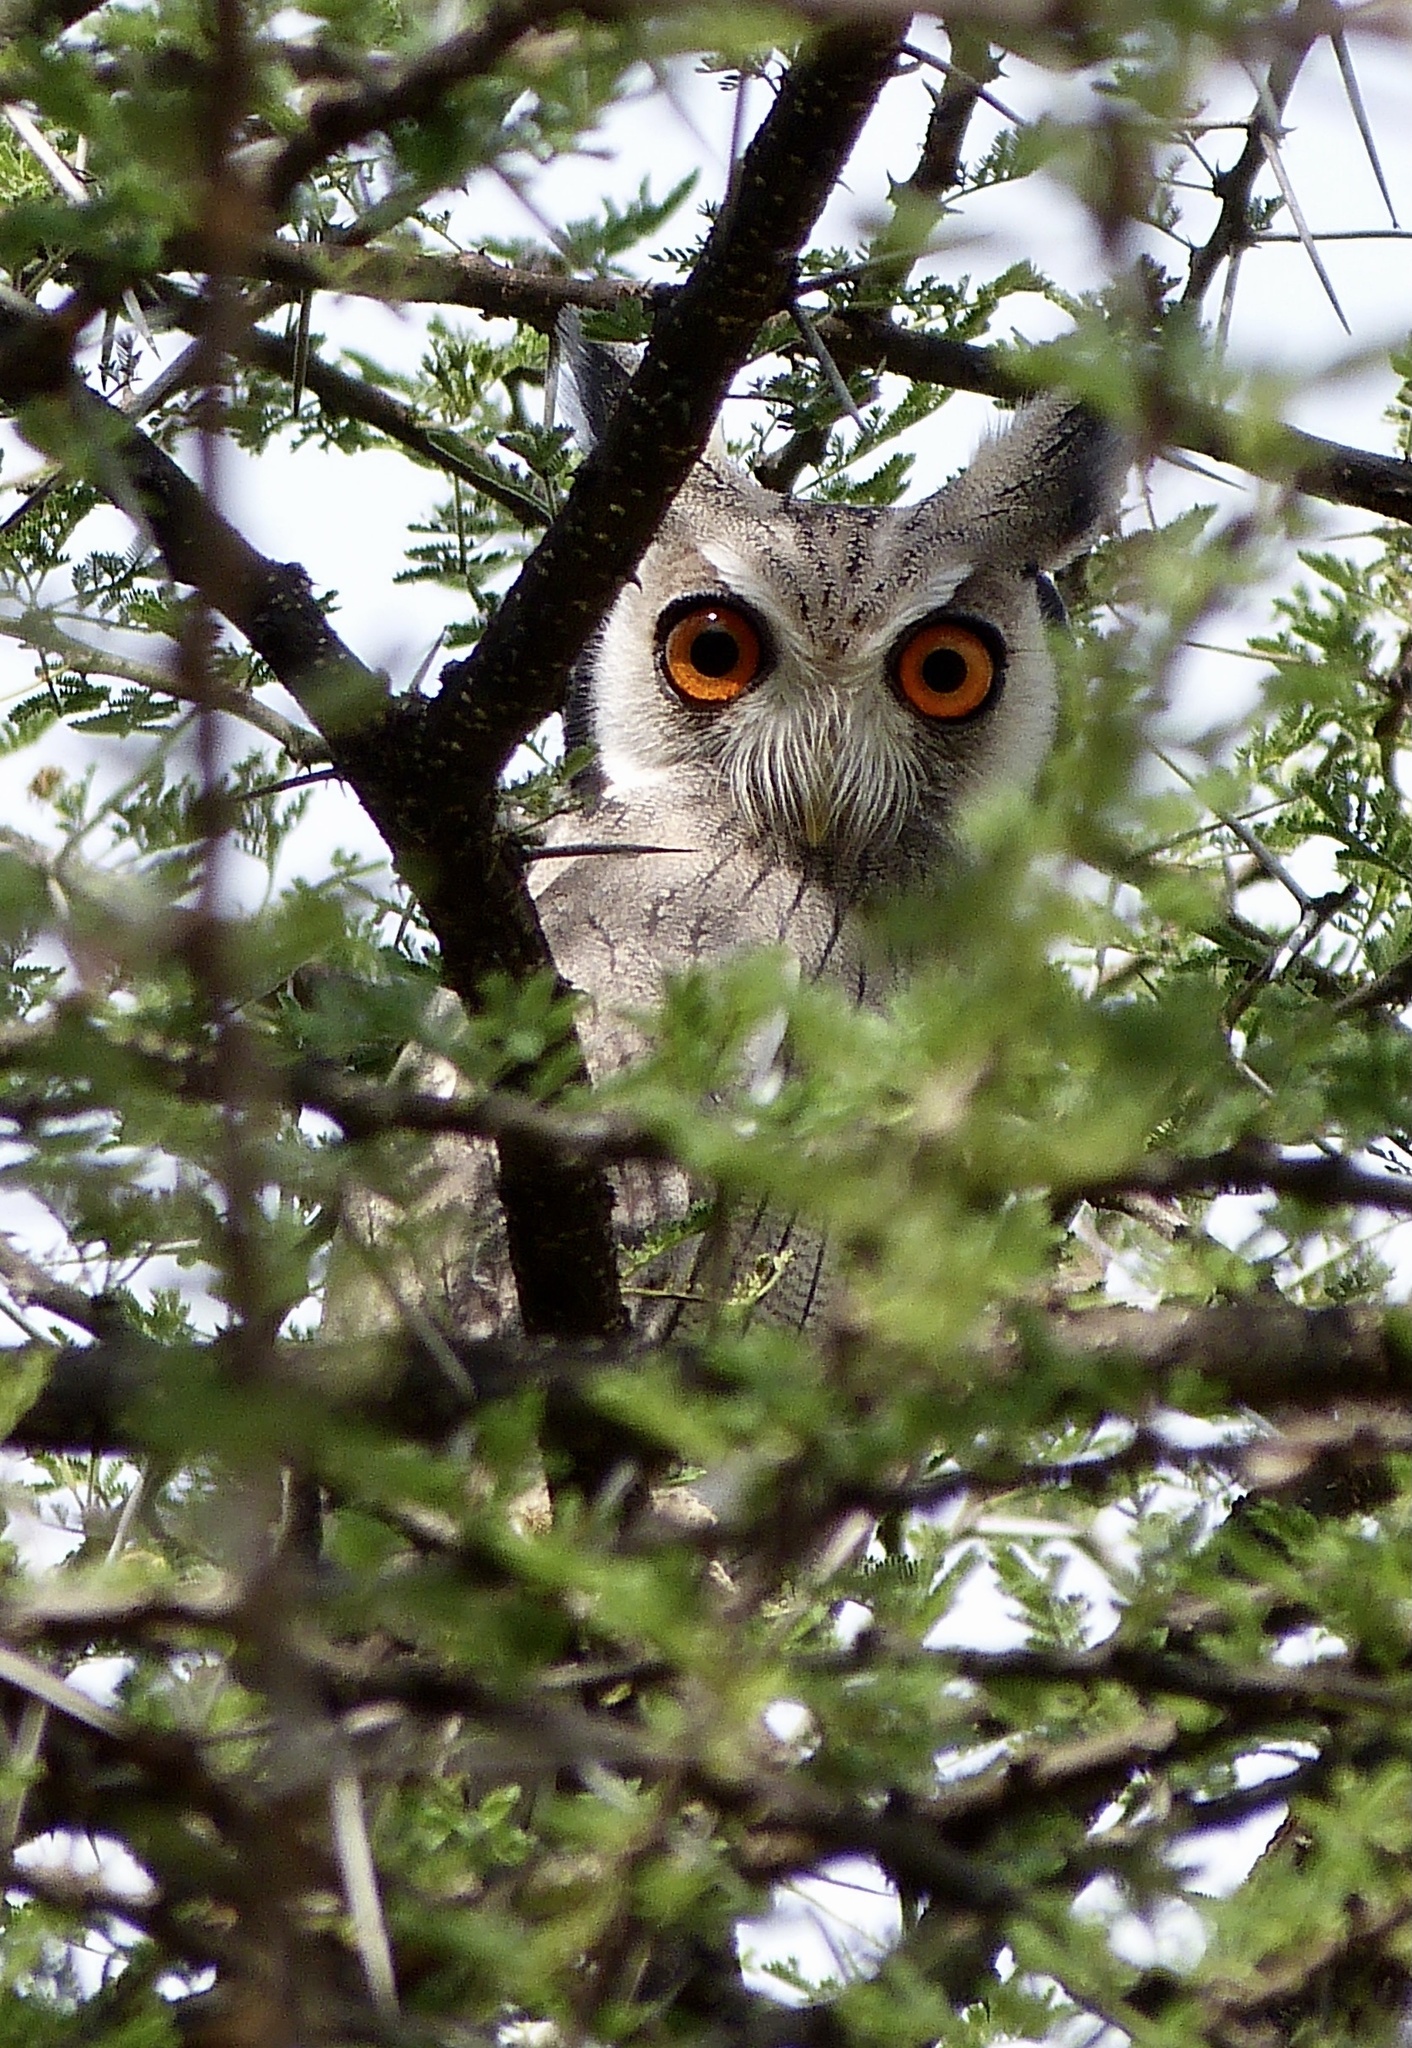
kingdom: Animalia
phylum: Chordata
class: Aves
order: Strigiformes
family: Strigidae
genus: Ptilopsis
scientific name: Ptilopsis leucotis
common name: Northern white-faced owl
